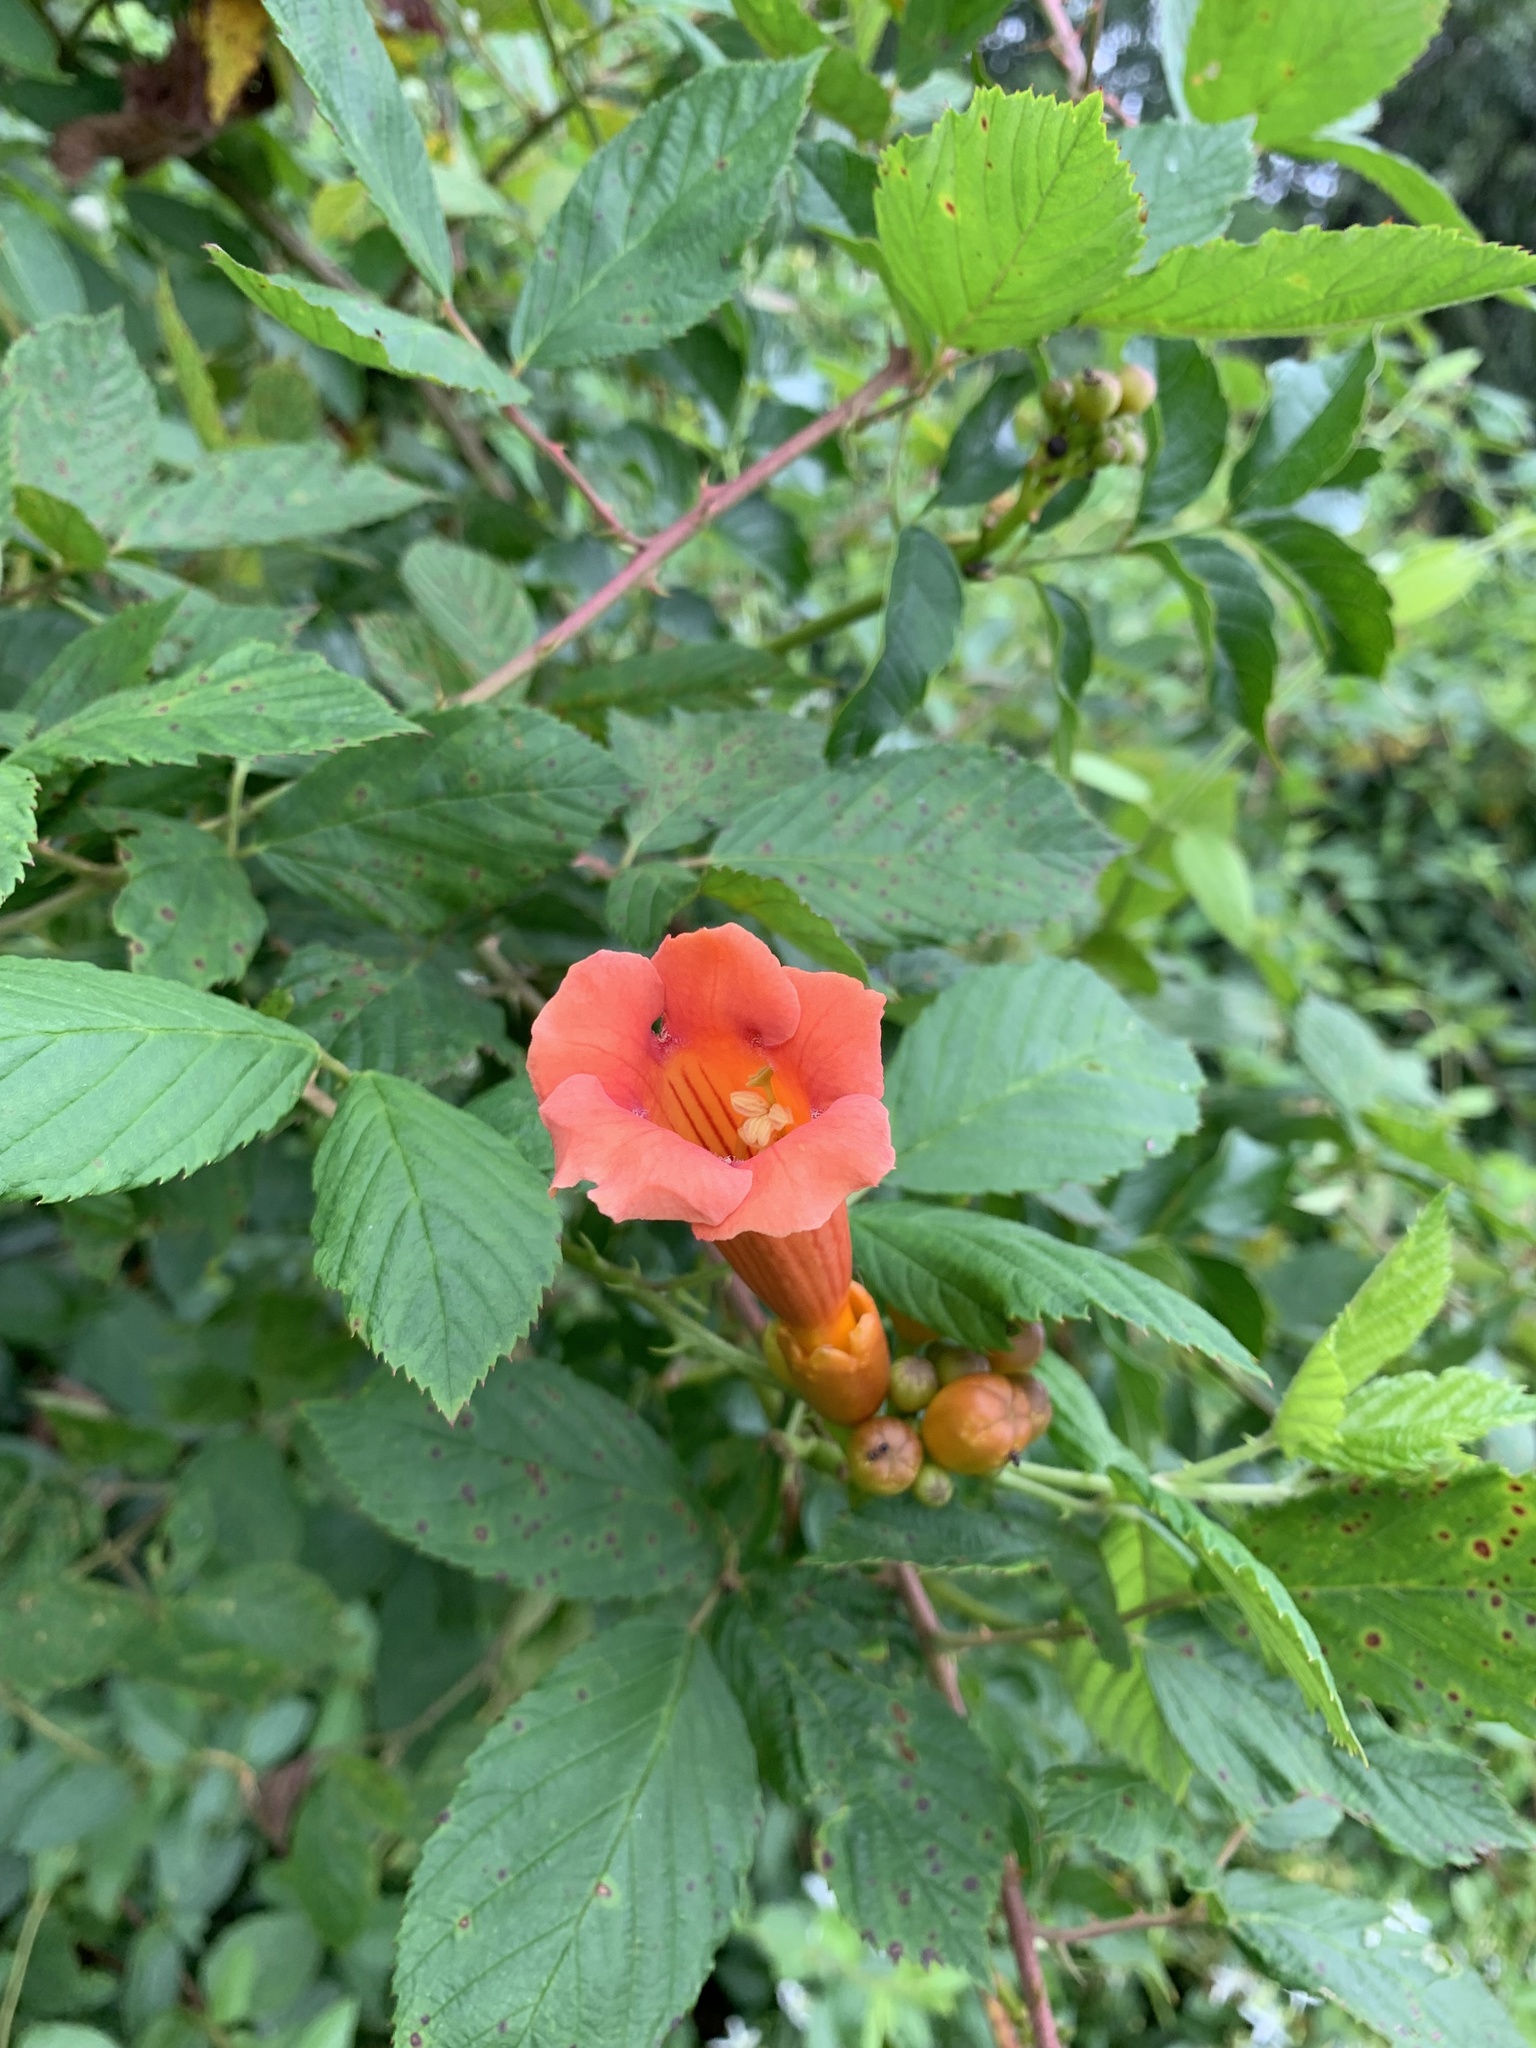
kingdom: Plantae
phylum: Tracheophyta
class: Magnoliopsida
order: Lamiales
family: Bignoniaceae
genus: Campsis
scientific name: Campsis radicans
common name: Trumpet-creeper
